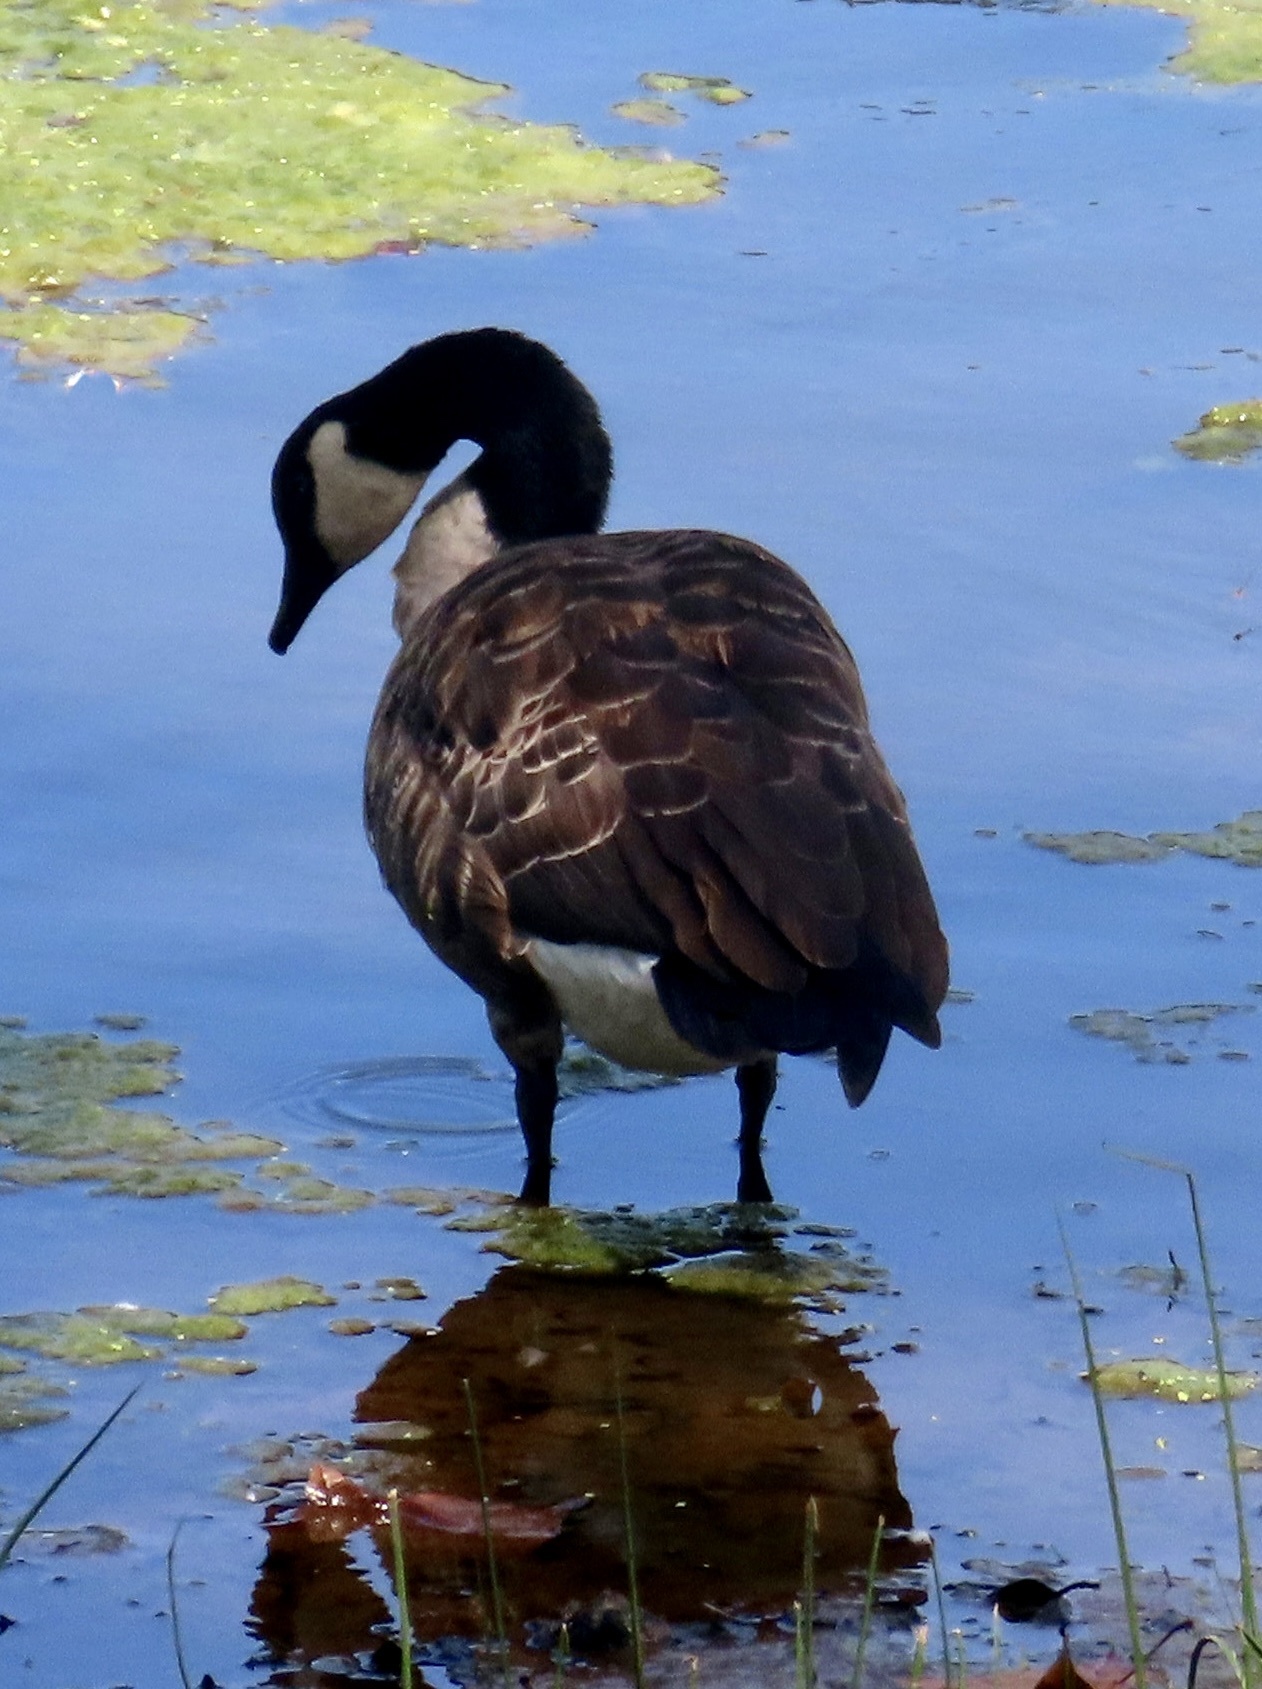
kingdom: Animalia
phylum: Chordata
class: Aves
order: Anseriformes
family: Anatidae
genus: Branta
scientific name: Branta canadensis
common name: Canada goose
